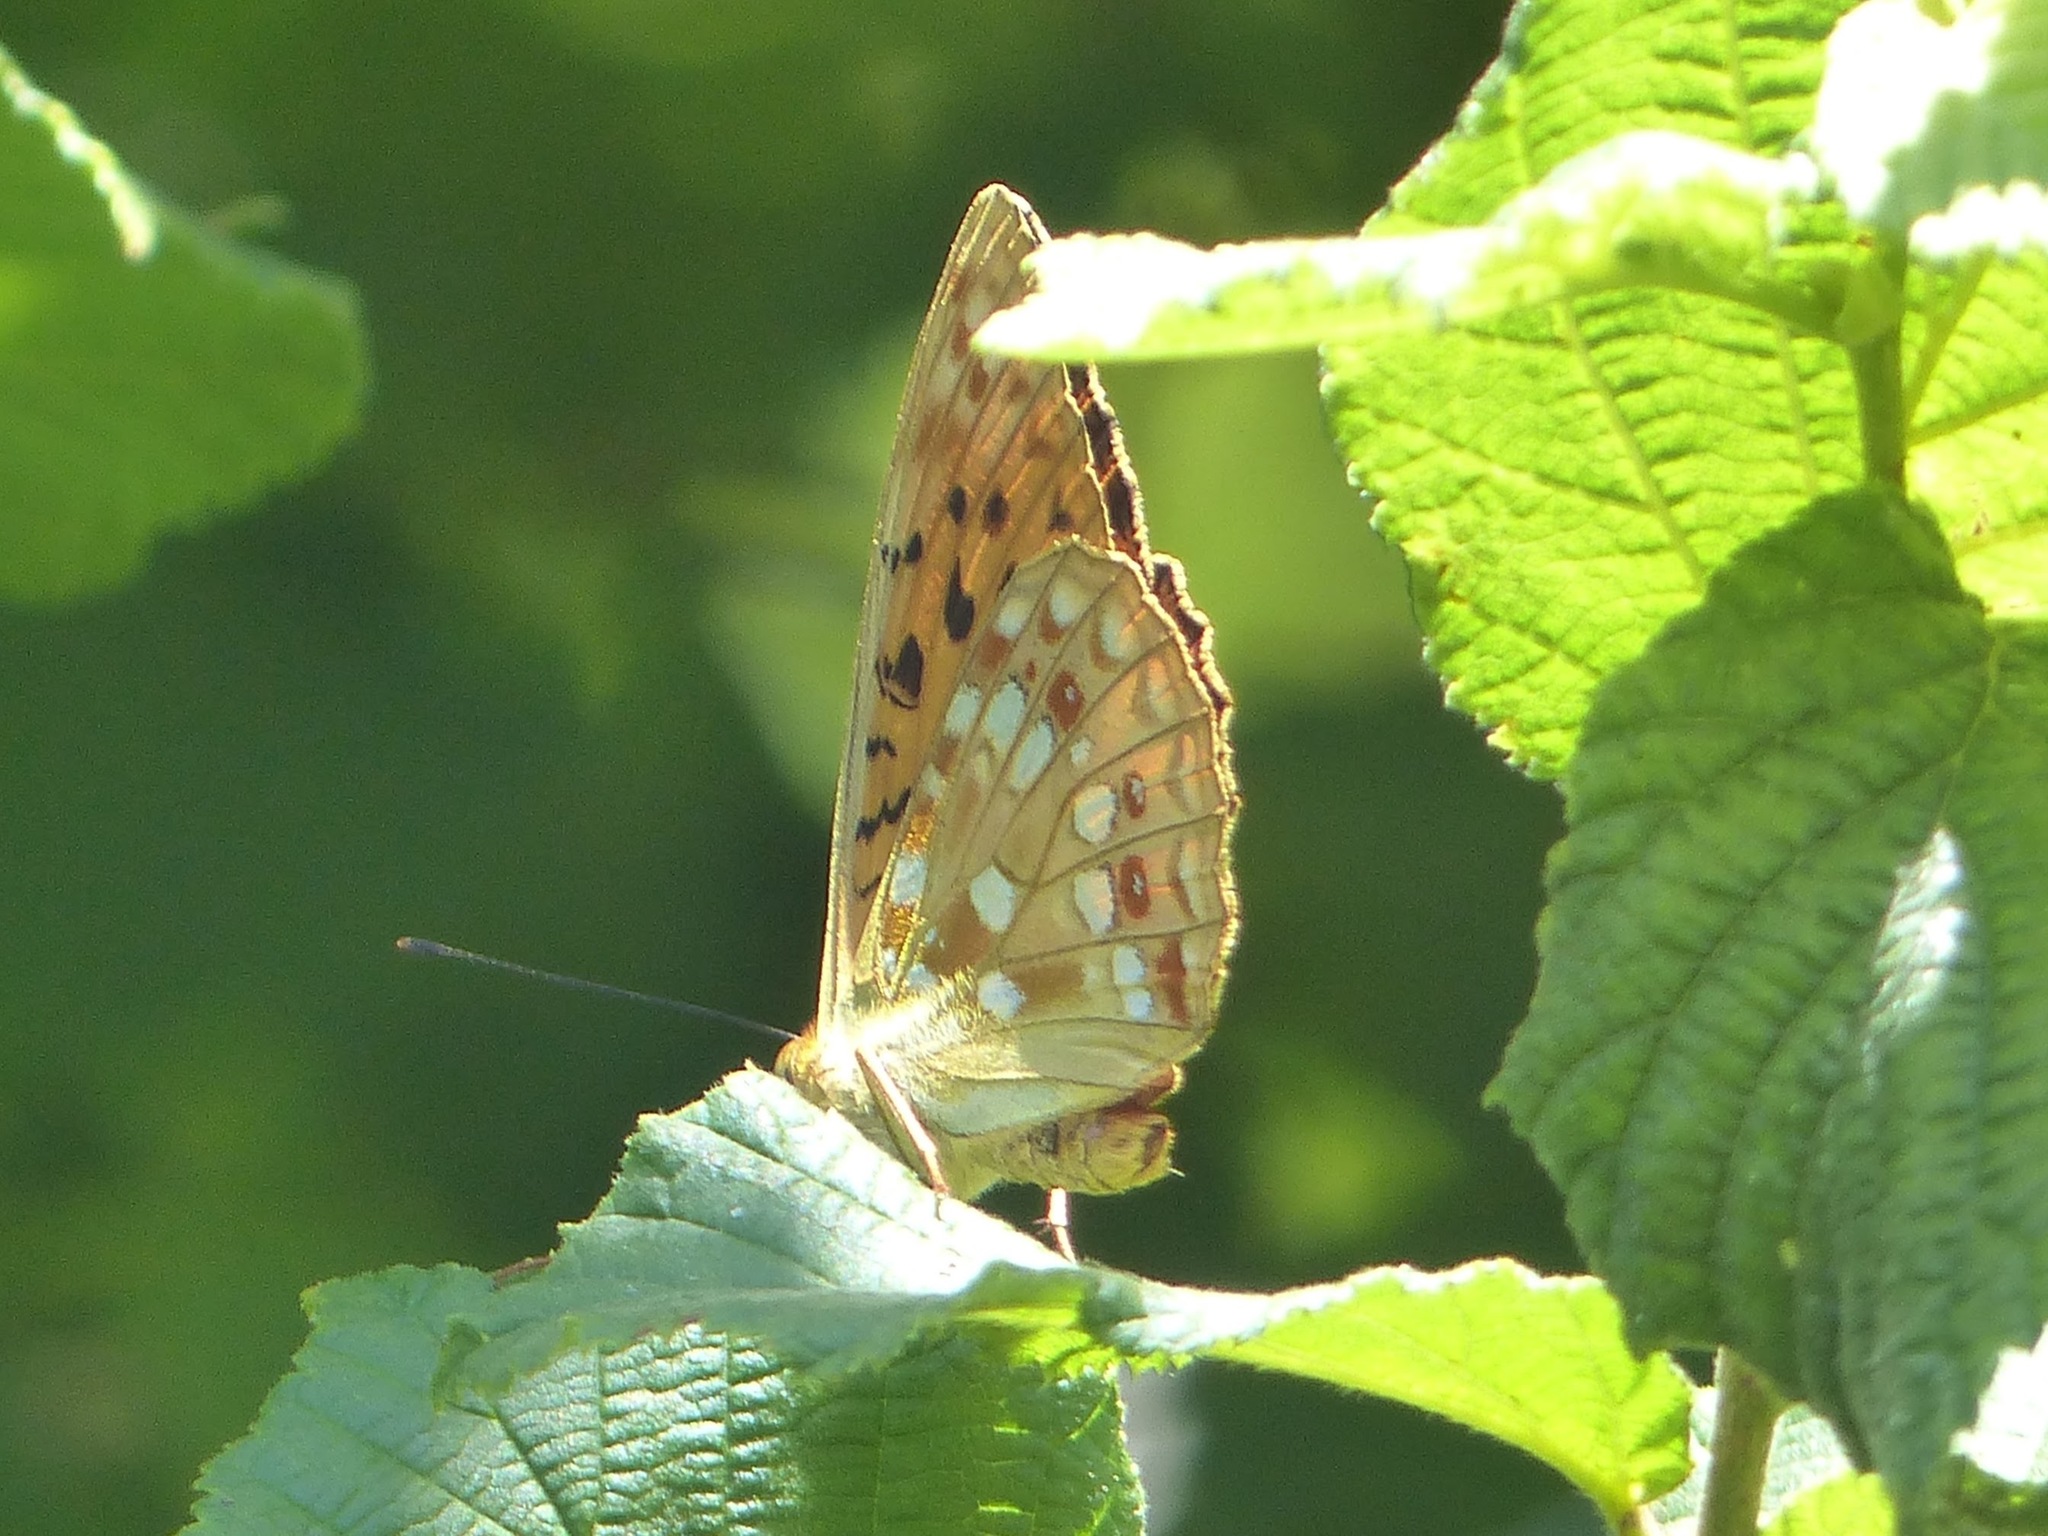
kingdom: Animalia
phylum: Arthropoda
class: Insecta
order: Lepidoptera
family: Nymphalidae
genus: Fabriciana
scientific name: Fabriciana adippe
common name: High brown fritillary
